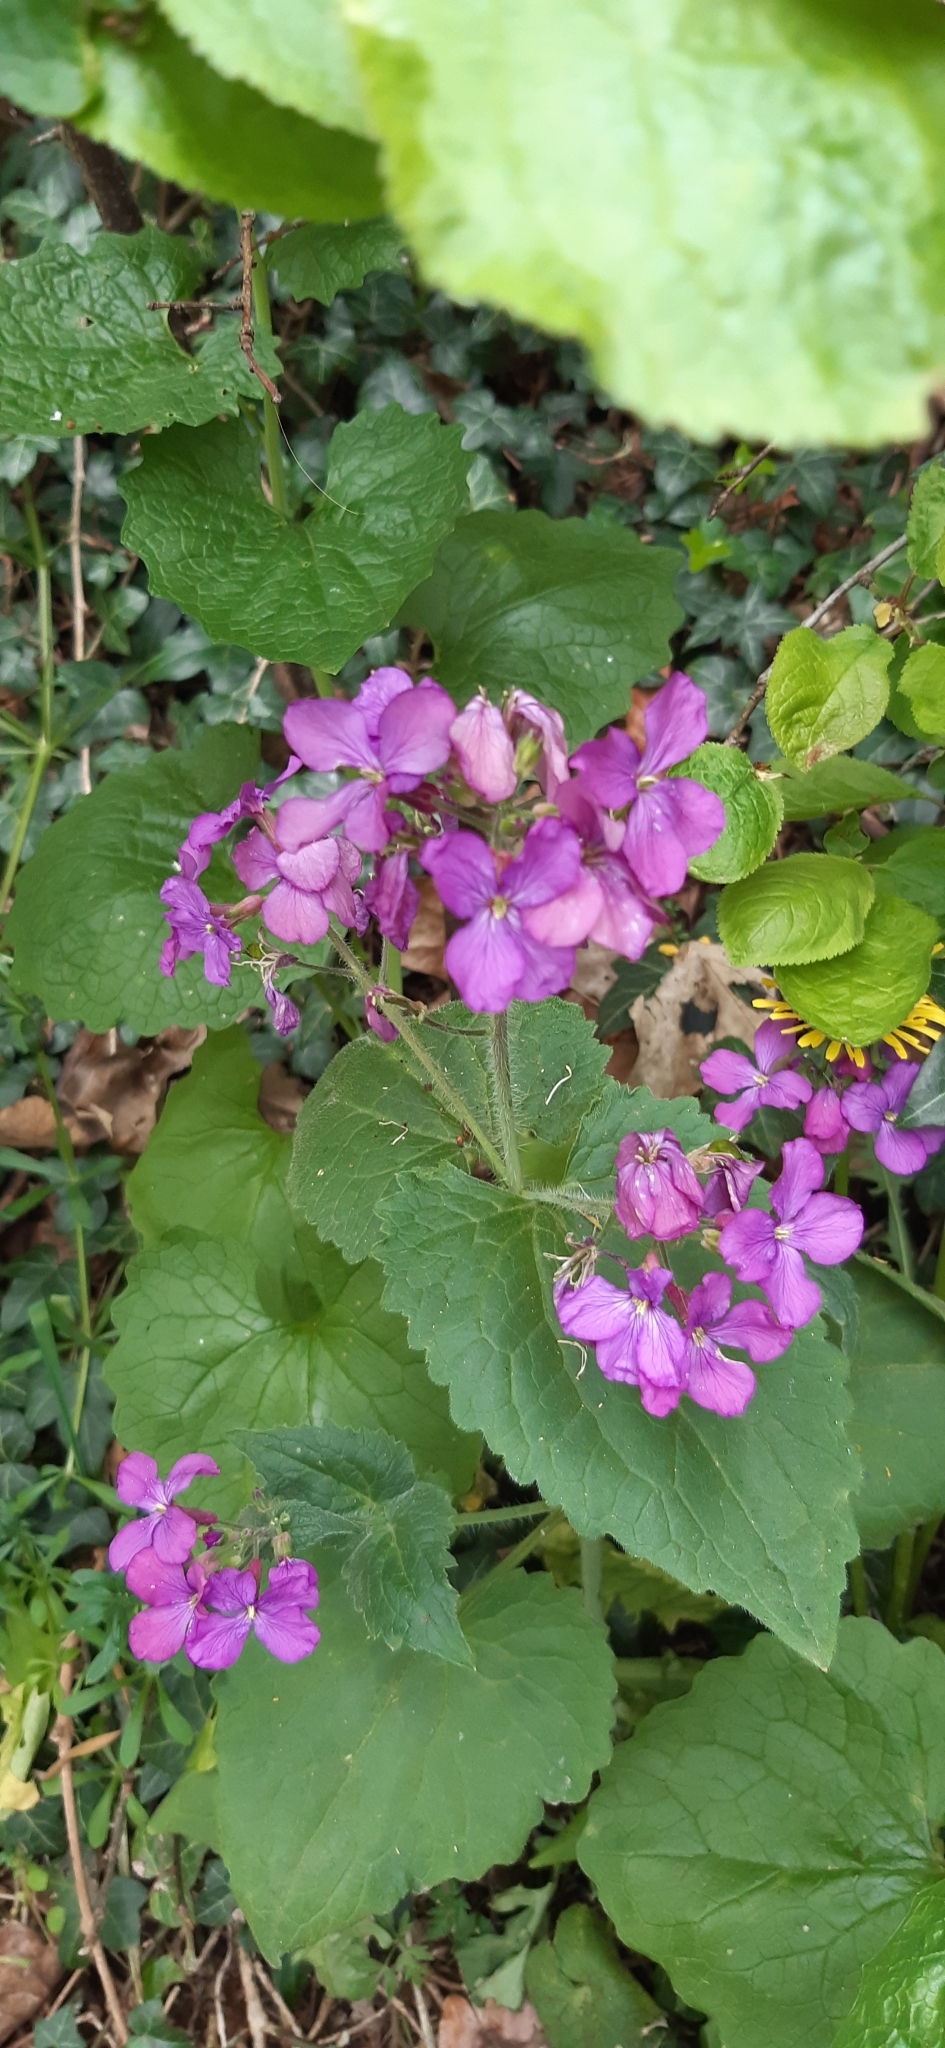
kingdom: Plantae
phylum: Tracheophyta
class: Magnoliopsida
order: Brassicales
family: Brassicaceae
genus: Lunaria
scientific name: Lunaria annua
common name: Honesty
